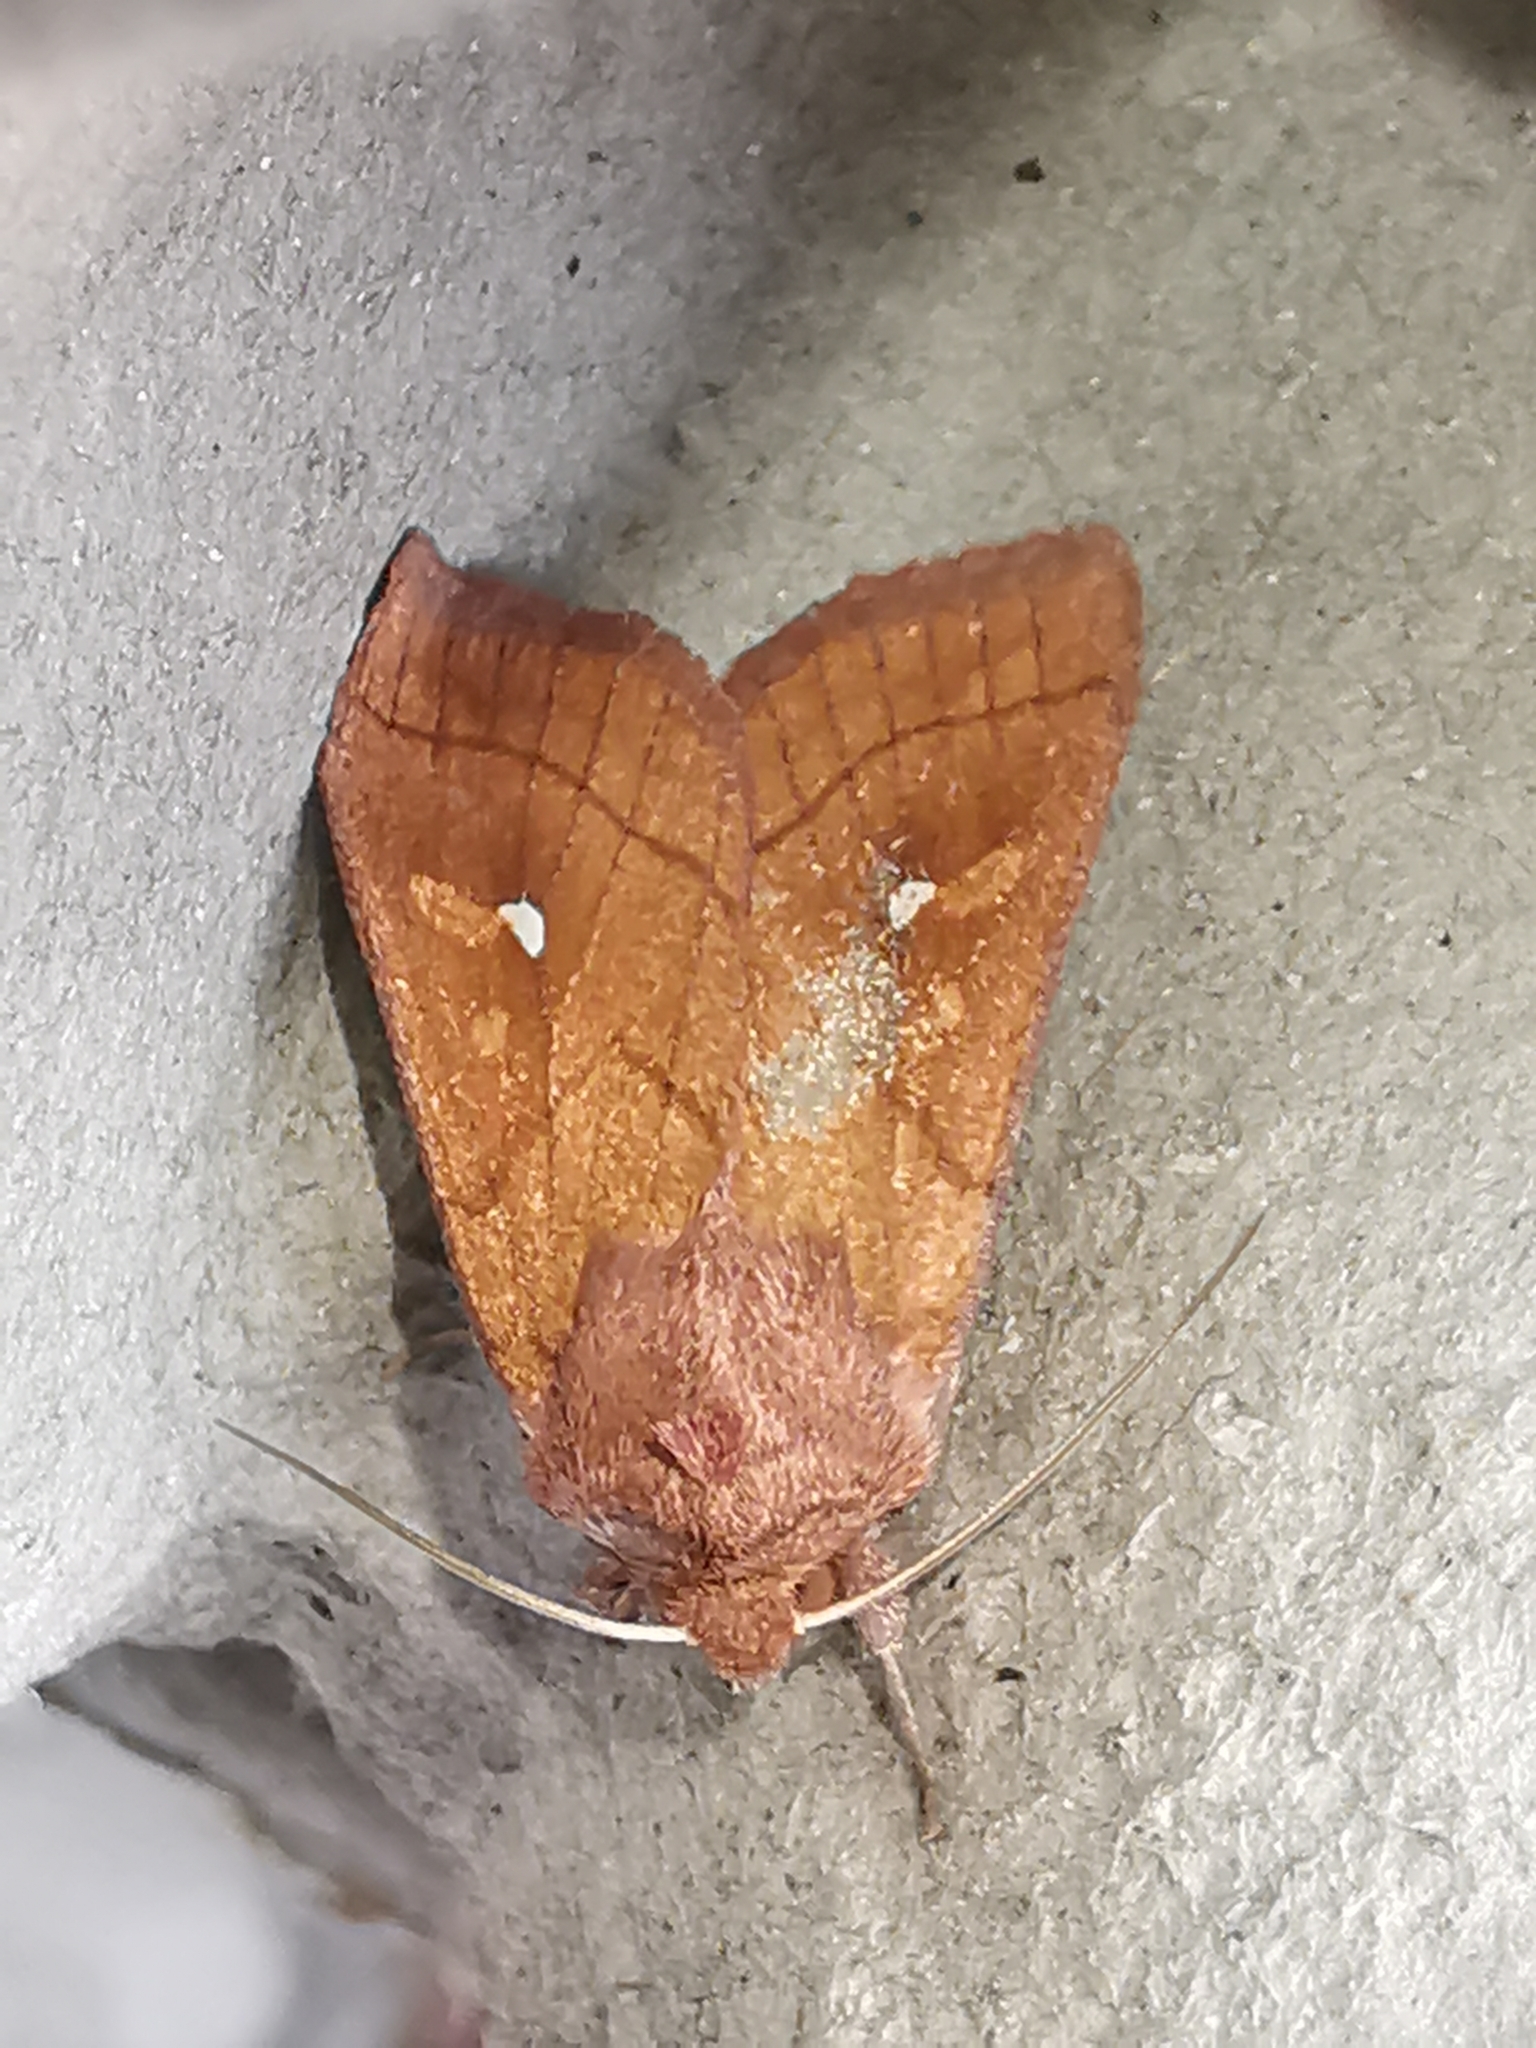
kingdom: Animalia
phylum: Arthropoda
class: Insecta
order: Lepidoptera
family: Noctuidae
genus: Mythimna
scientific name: Mythimna conigera
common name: Brown-line bright-eye
